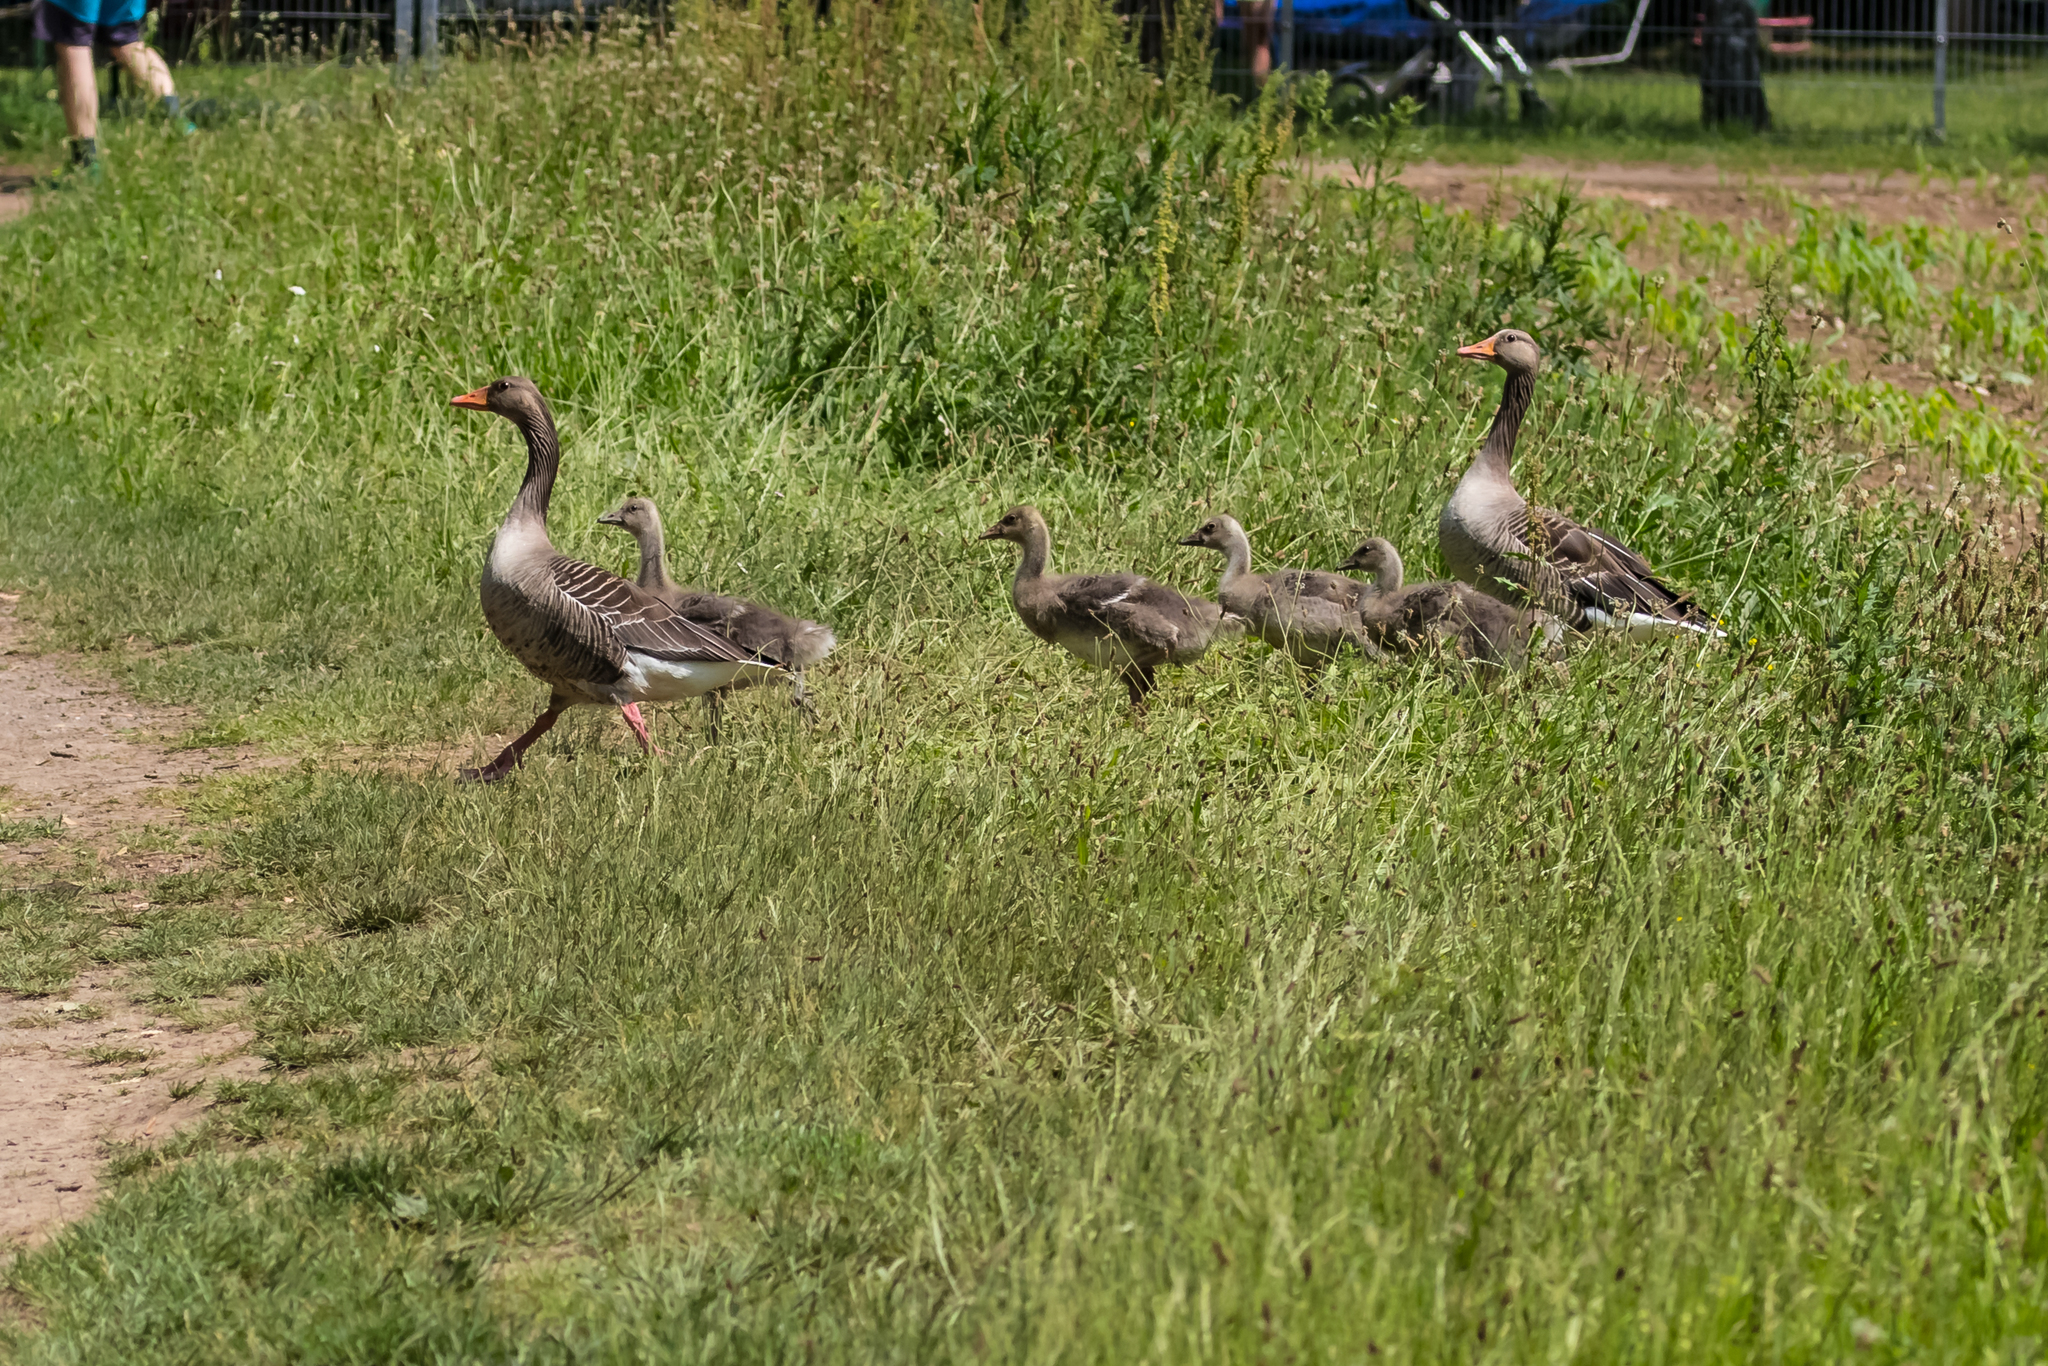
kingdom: Animalia
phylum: Chordata
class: Aves
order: Anseriformes
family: Anatidae
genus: Anser
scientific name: Anser anser
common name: Greylag goose
